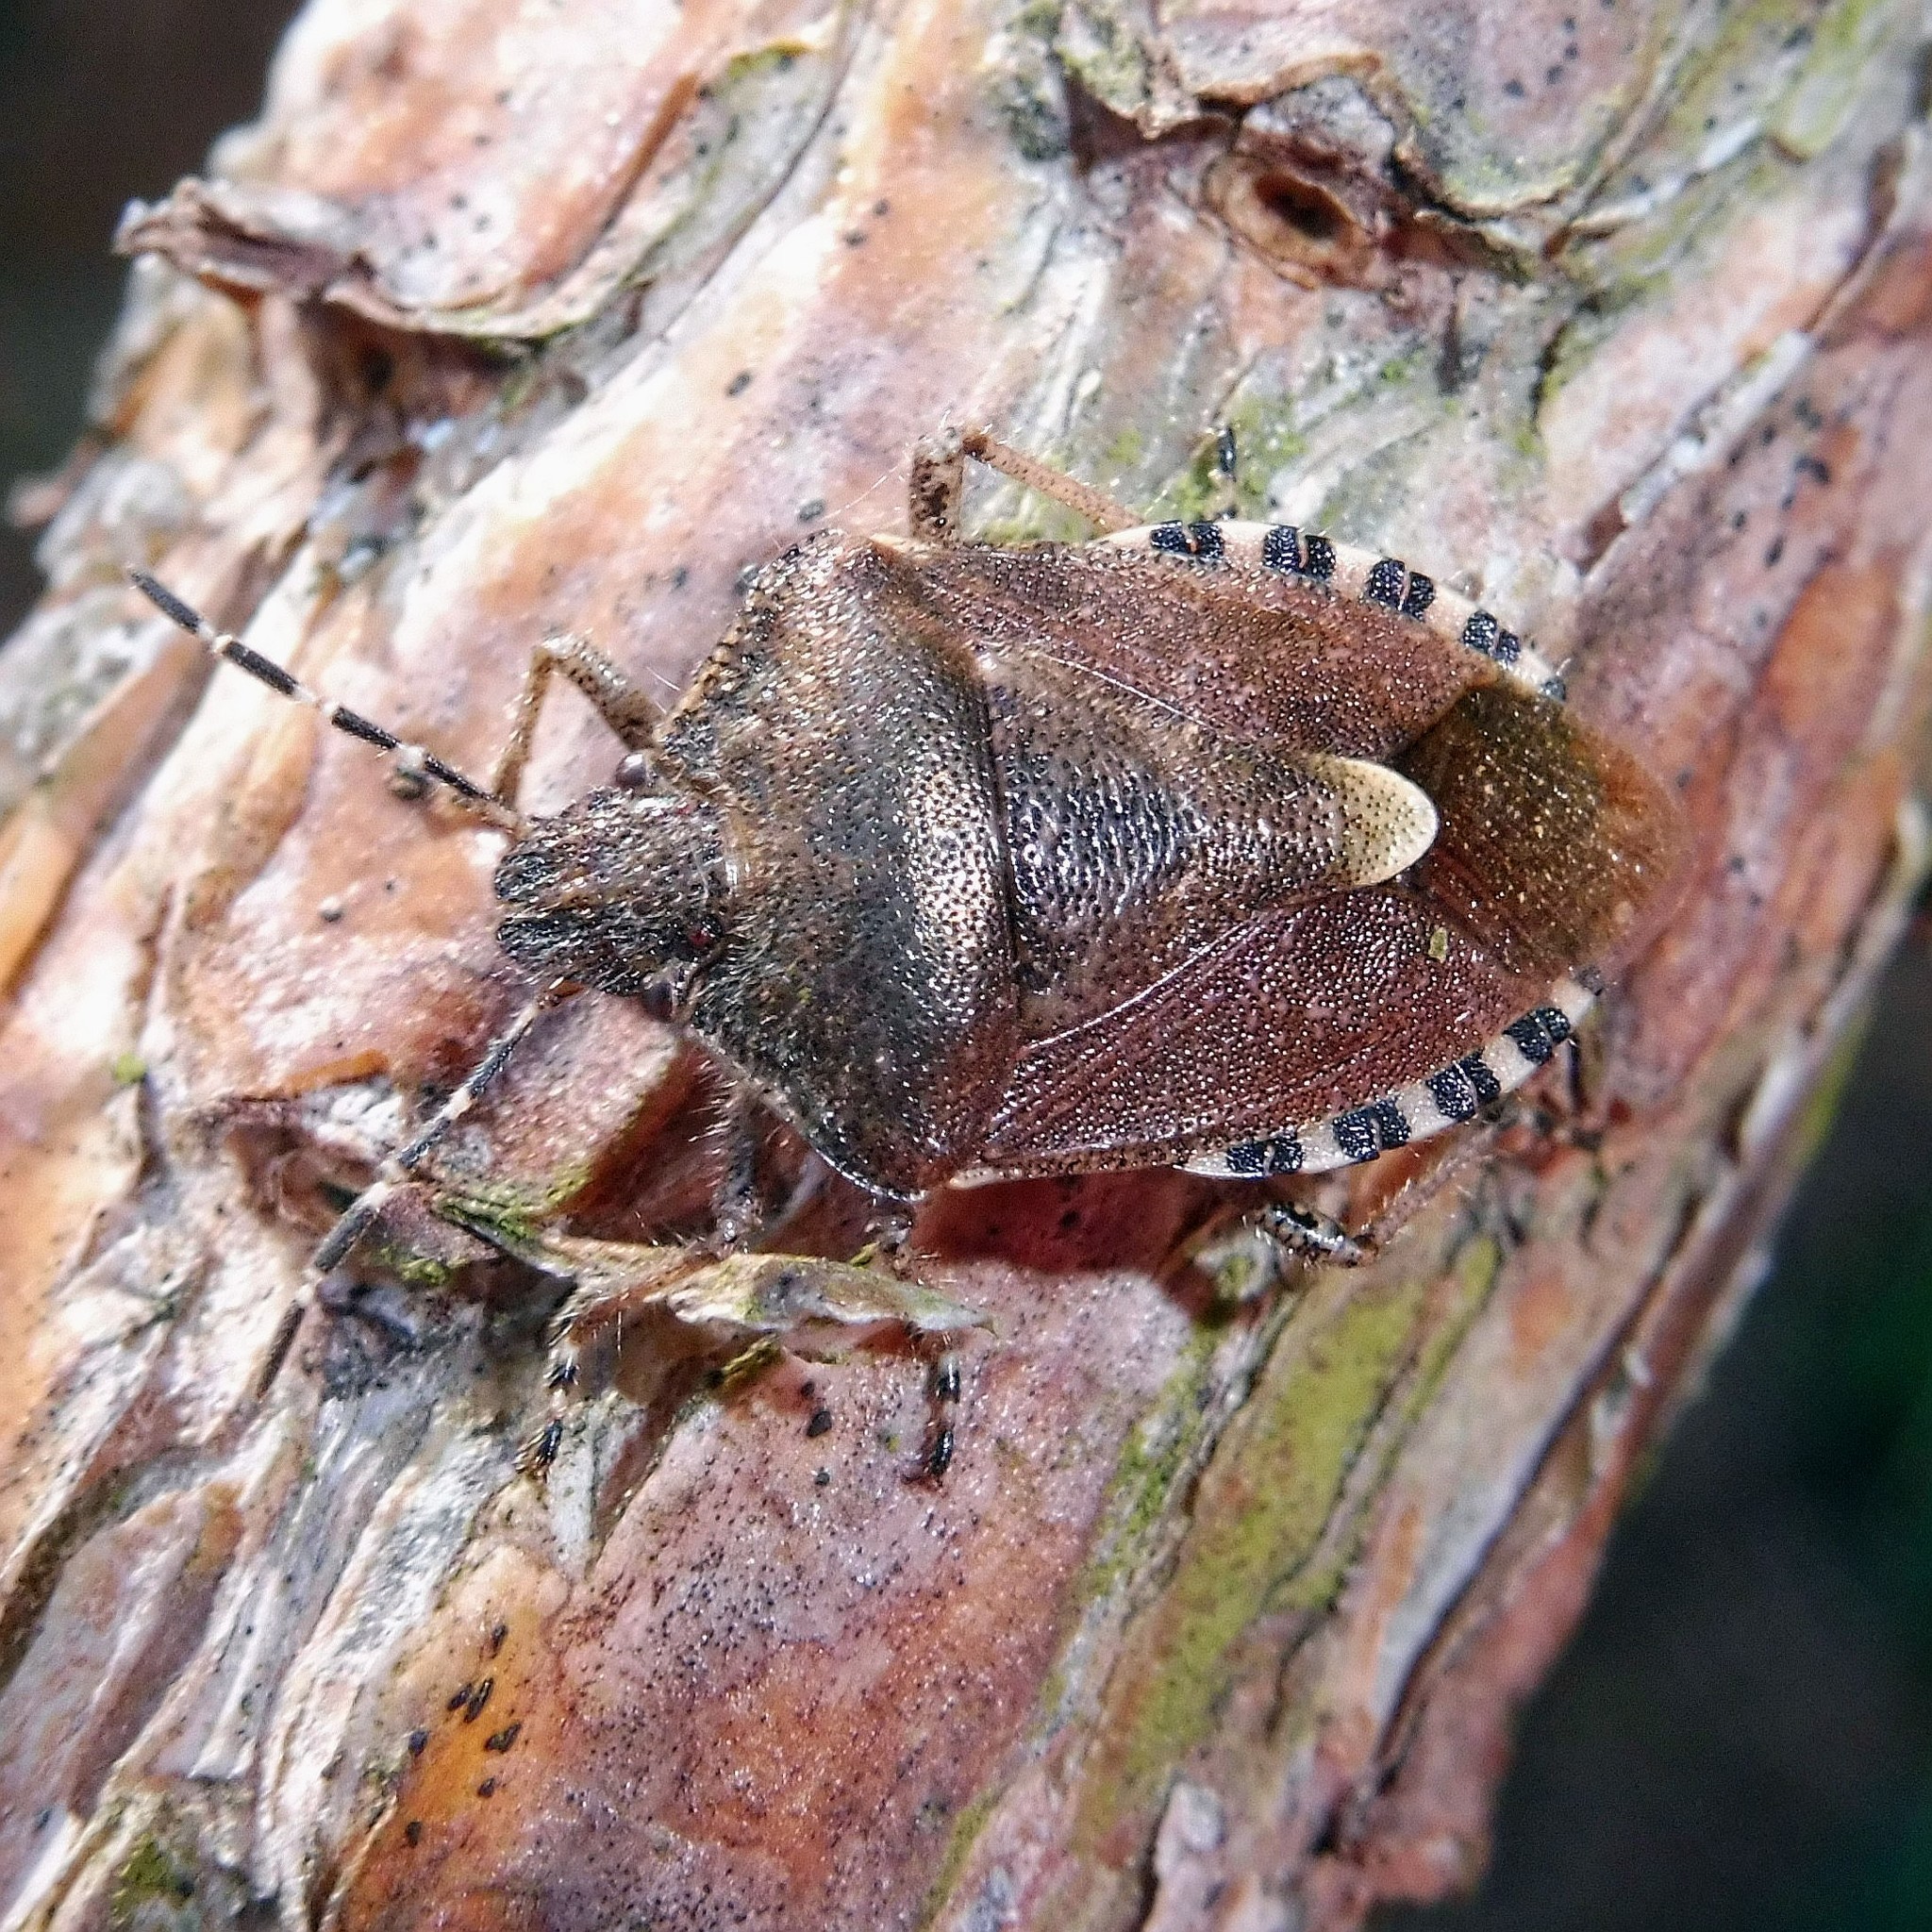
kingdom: Animalia
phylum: Arthropoda
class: Insecta
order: Hemiptera
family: Pentatomidae
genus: Dolycoris
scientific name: Dolycoris baccarum
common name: Sloe bug
